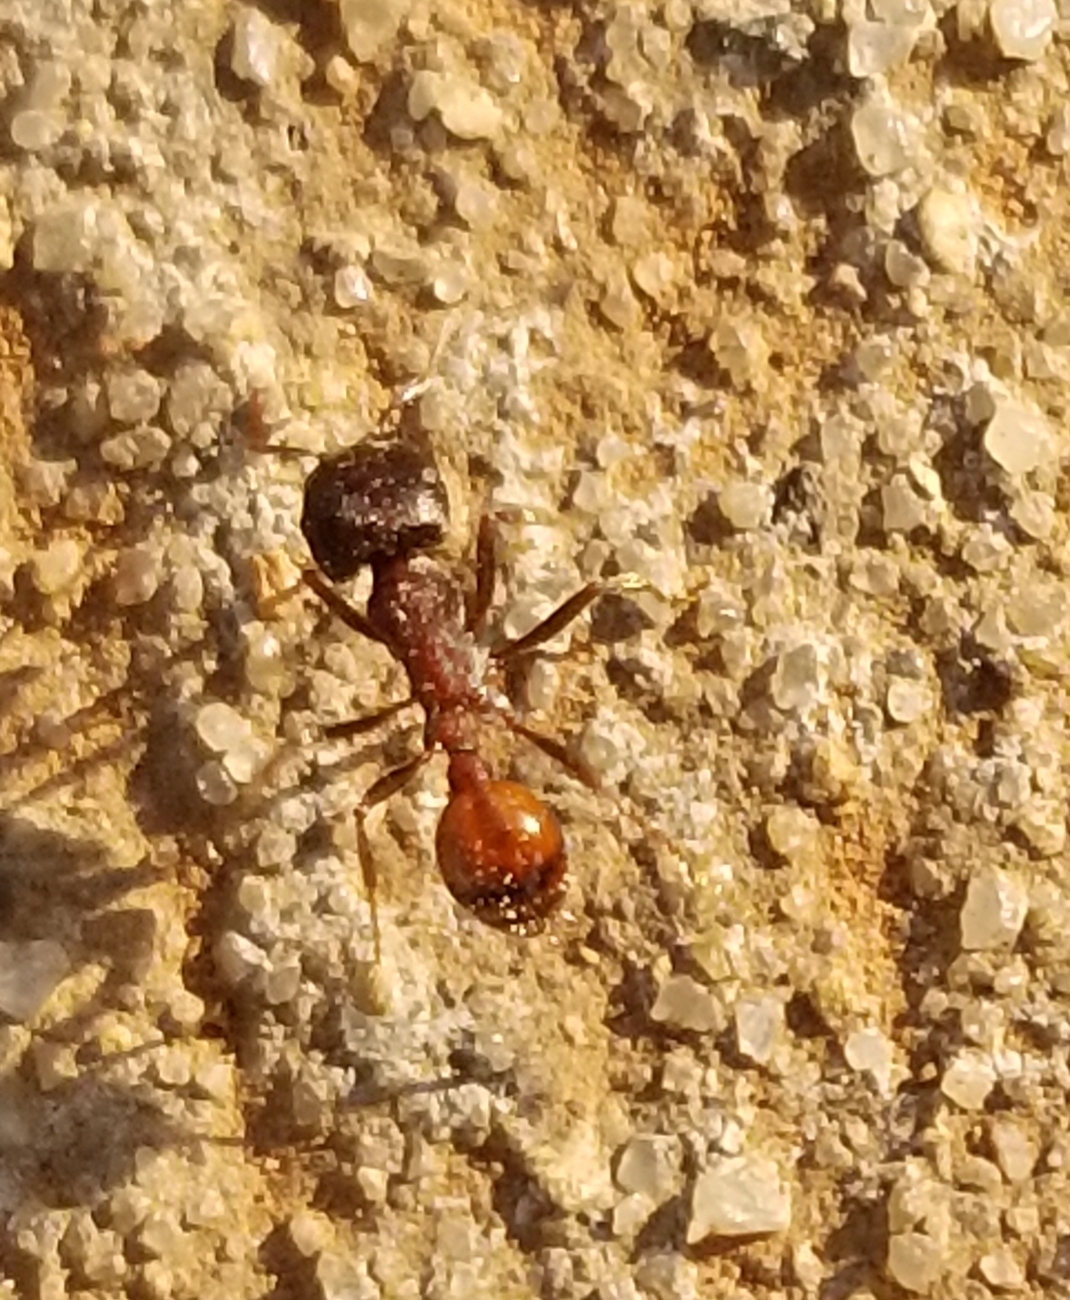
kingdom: Animalia
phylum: Arthropoda
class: Insecta
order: Hymenoptera
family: Formicidae
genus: Pogonomyrmex
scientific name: Pogonomyrmex rugosus
